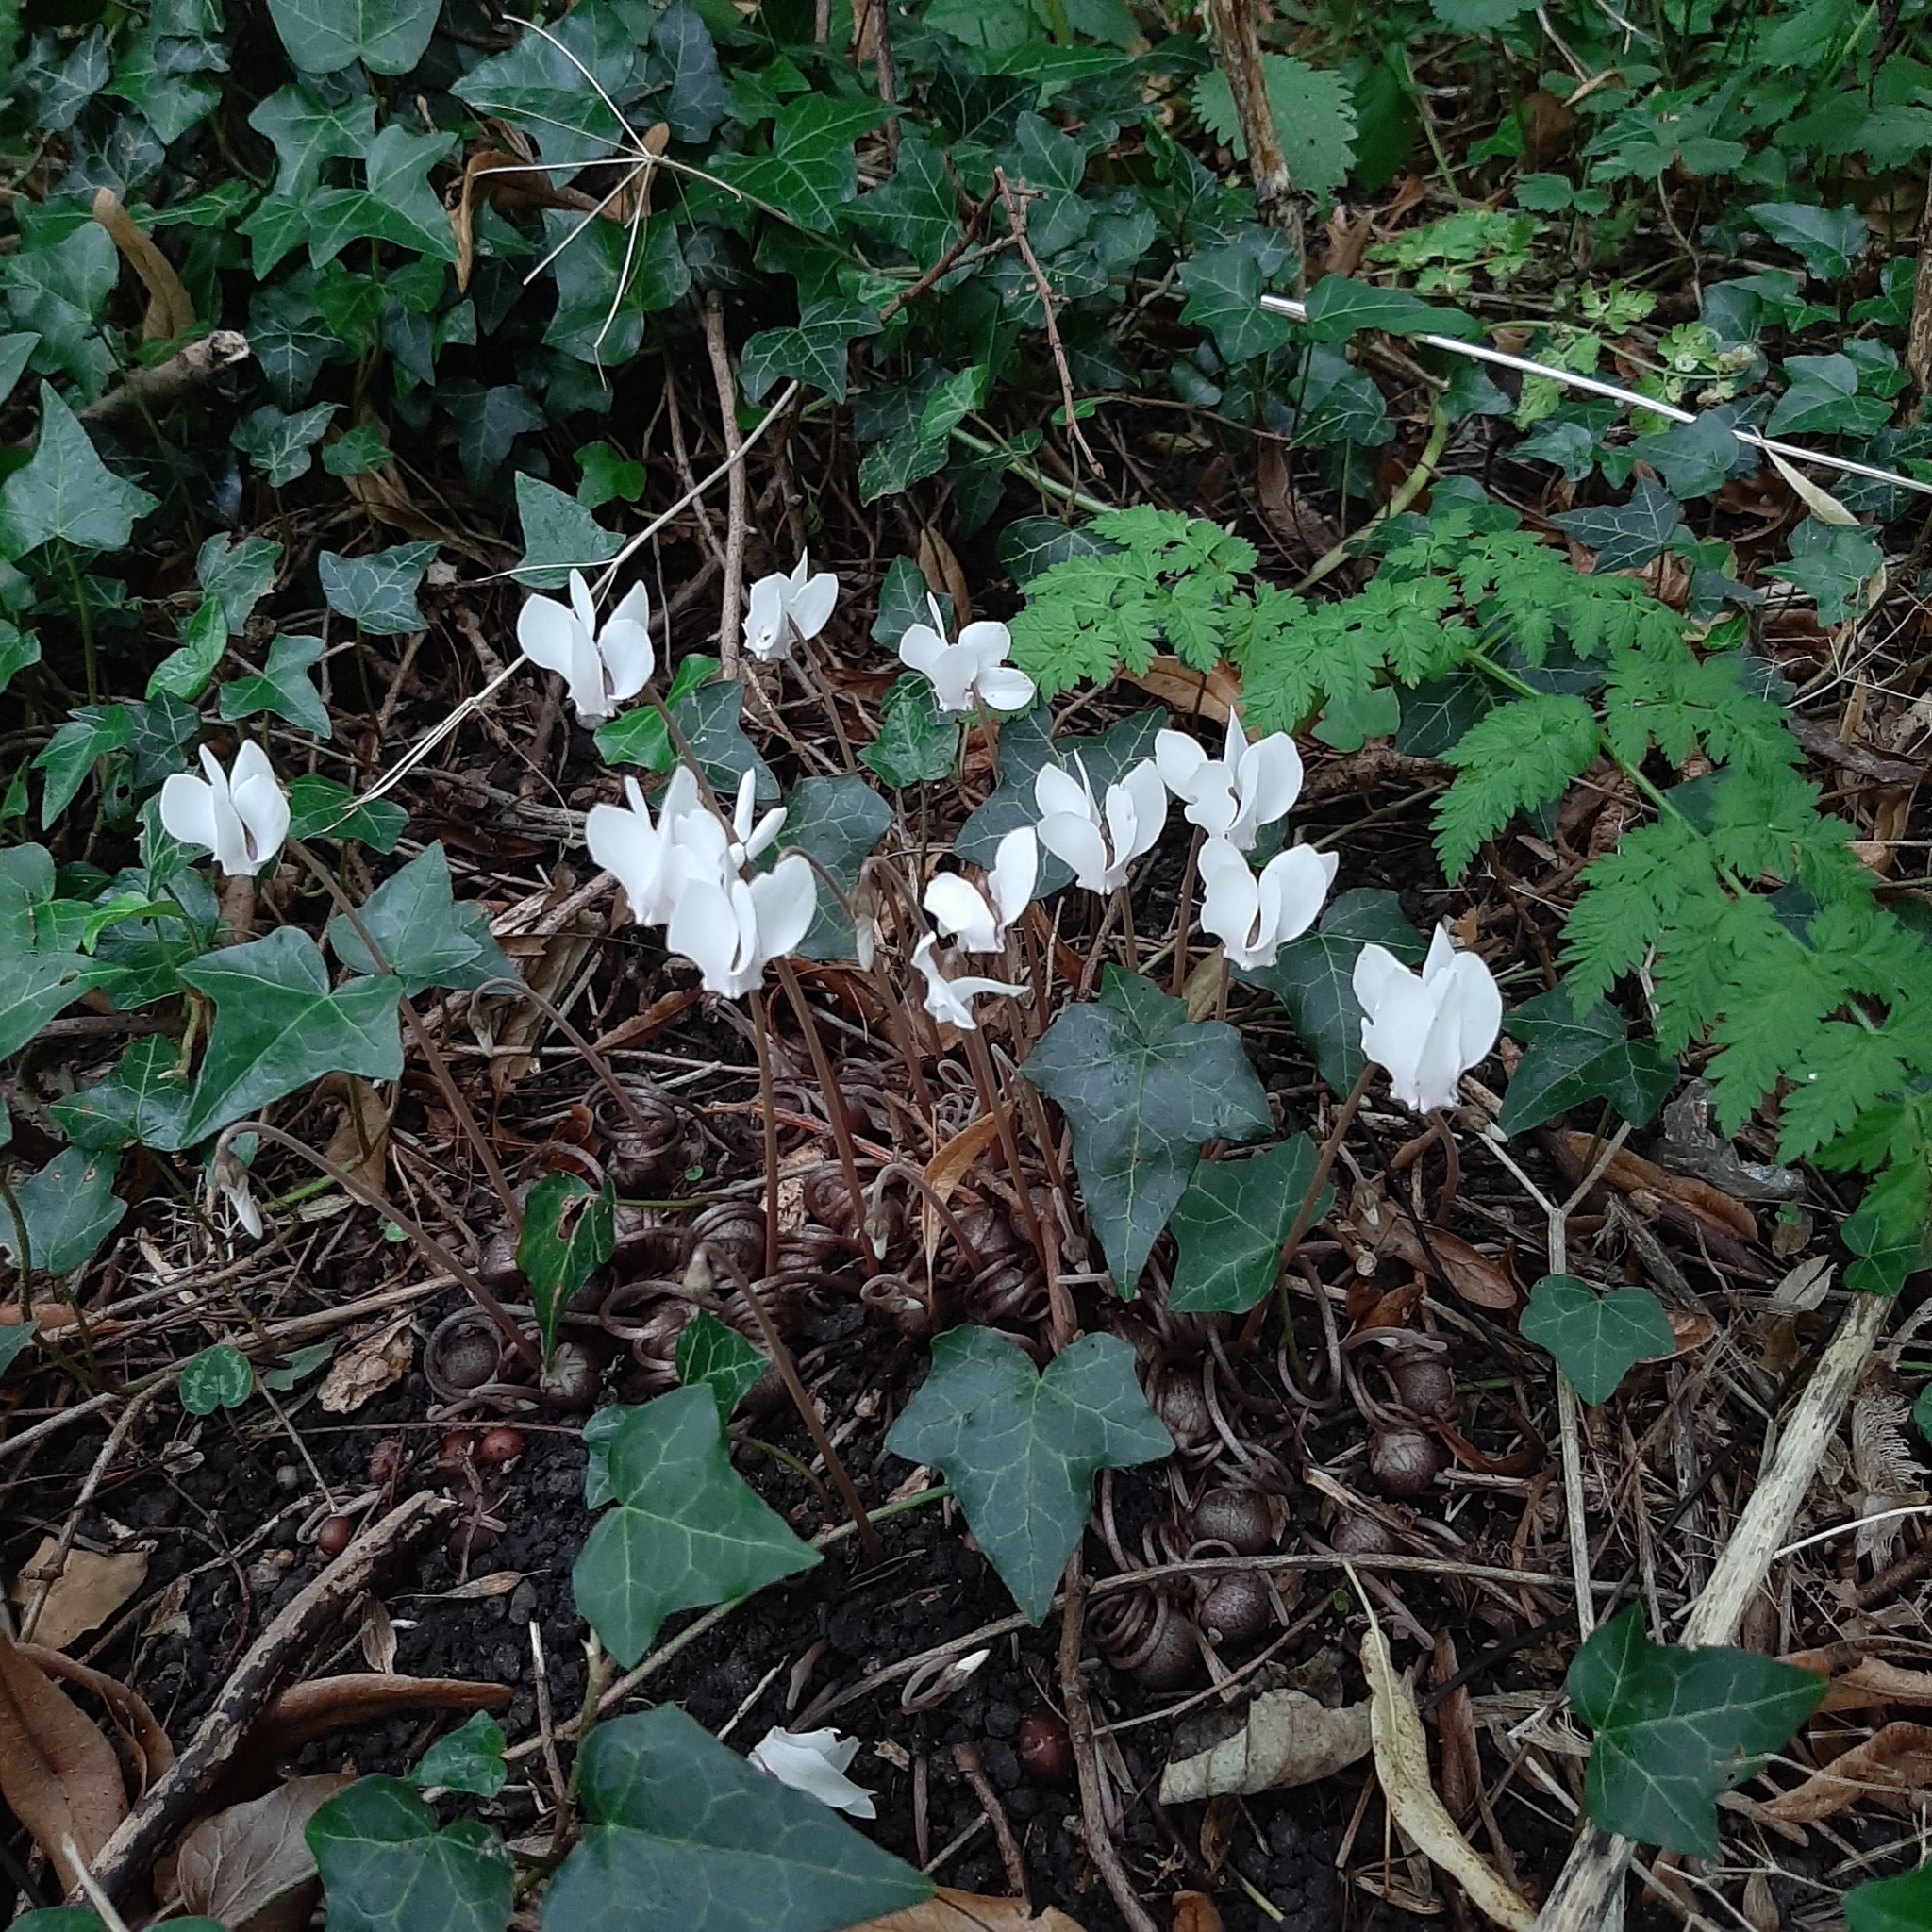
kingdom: Plantae
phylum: Tracheophyta
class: Magnoliopsida
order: Ericales
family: Primulaceae
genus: Cyclamen
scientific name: Cyclamen hederifolium
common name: Sowbread
